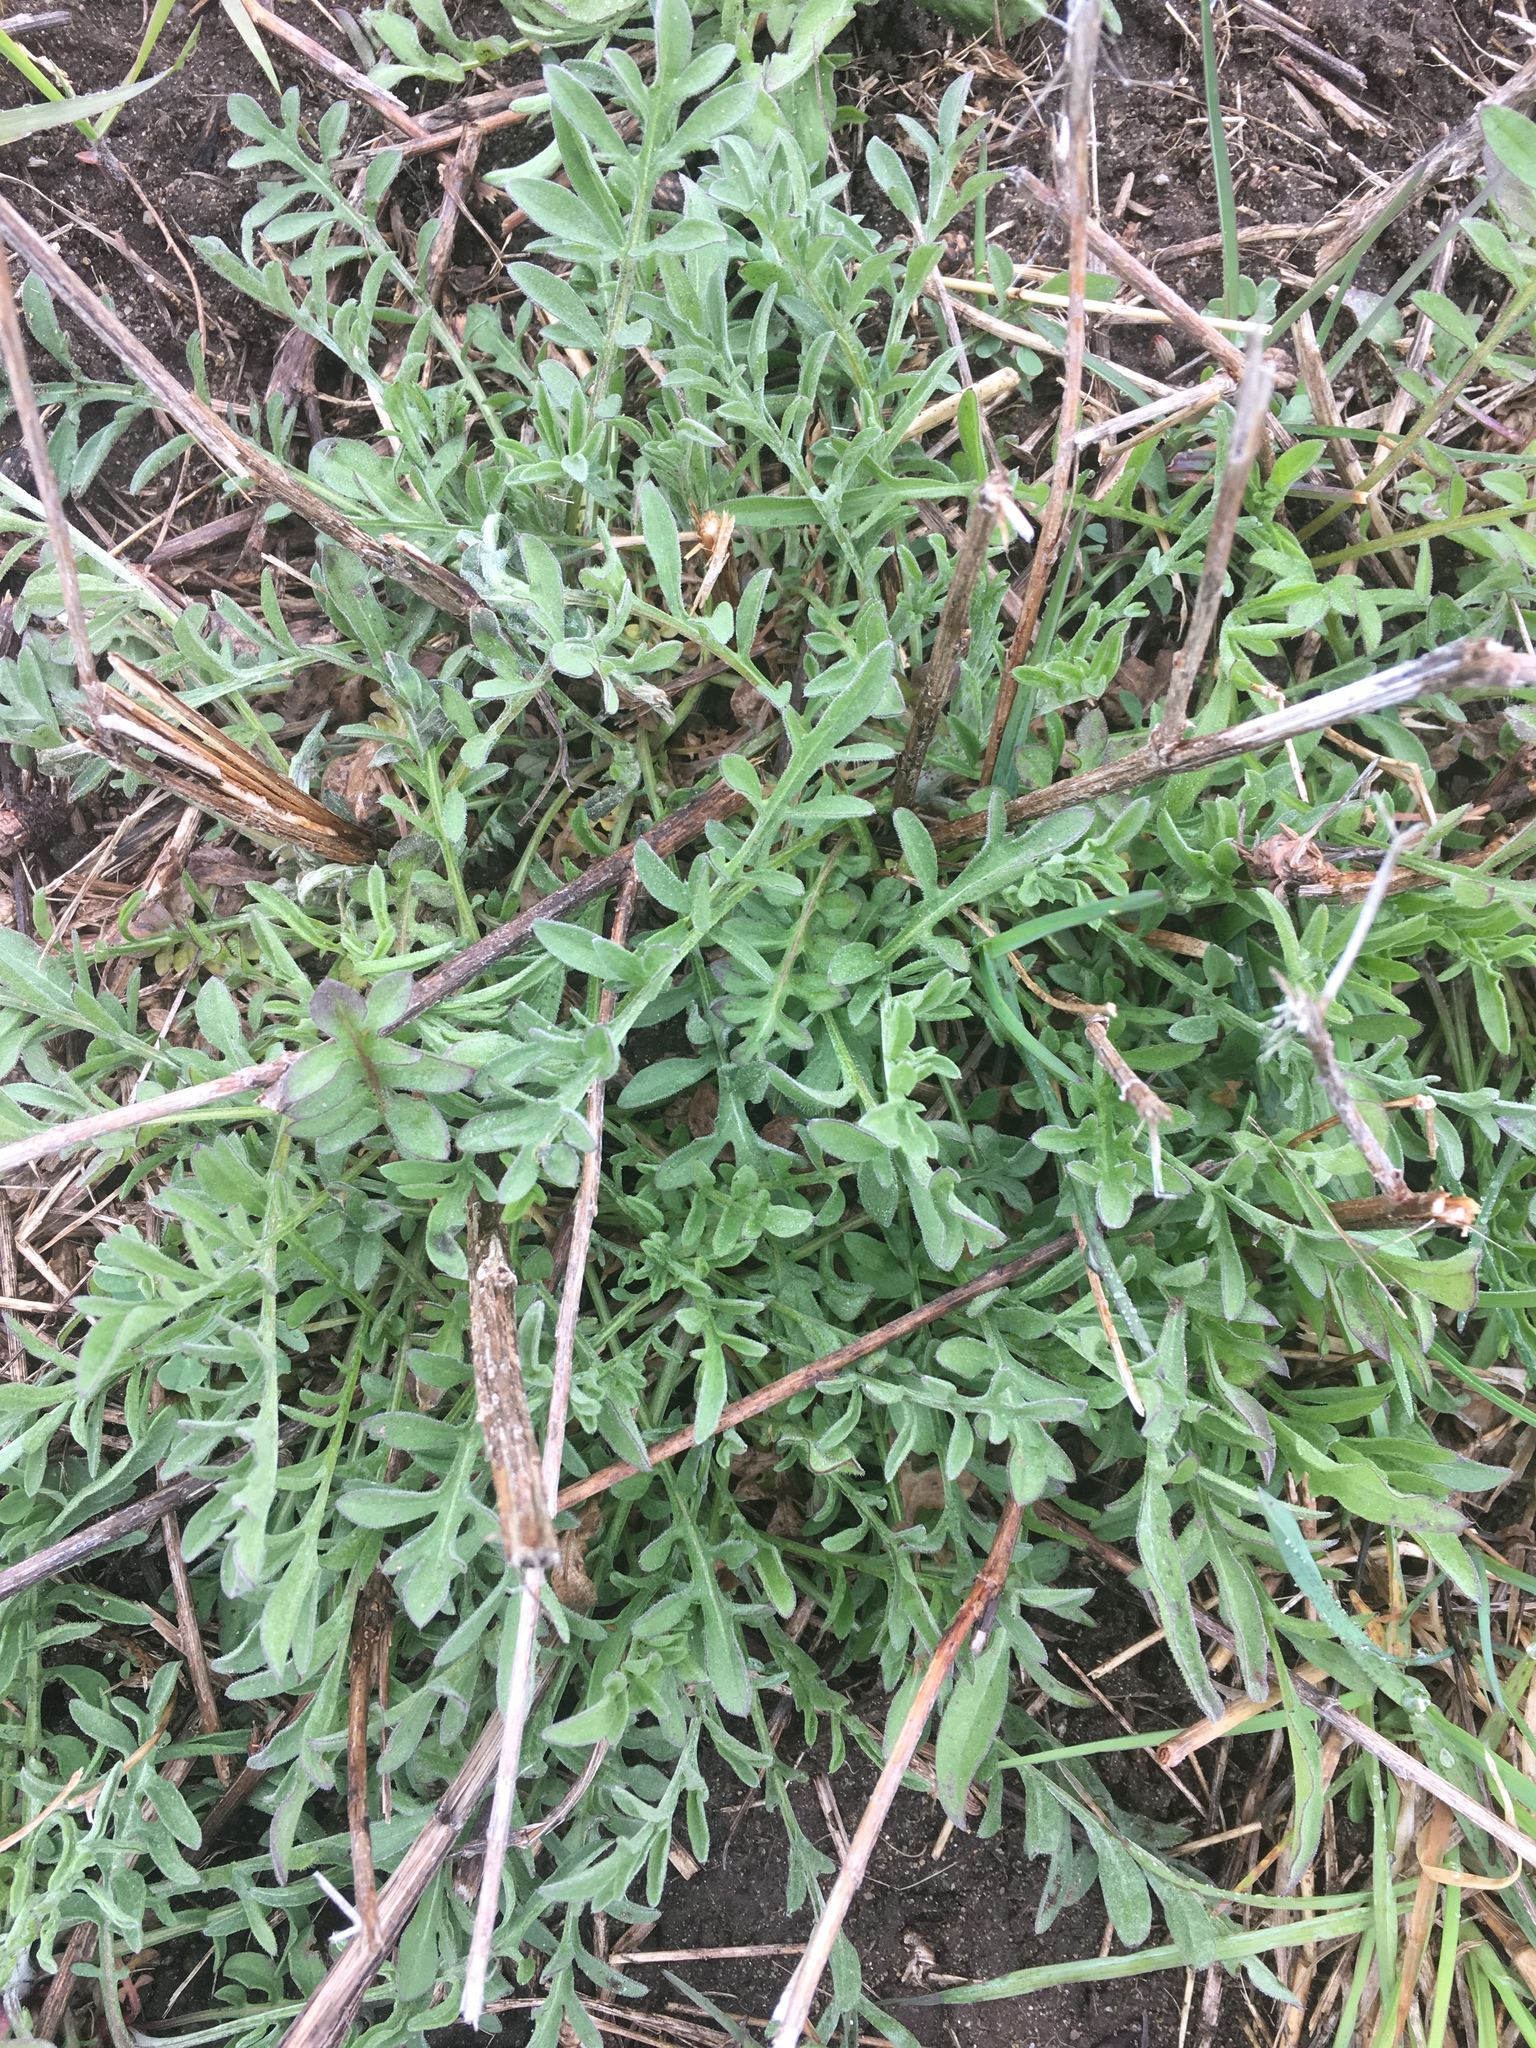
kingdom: Plantae
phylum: Tracheophyta
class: Magnoliopsida
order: Asterales
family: Asteraceae
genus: Centaurea
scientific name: Centaurea stoebe
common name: Spotted knapweed
